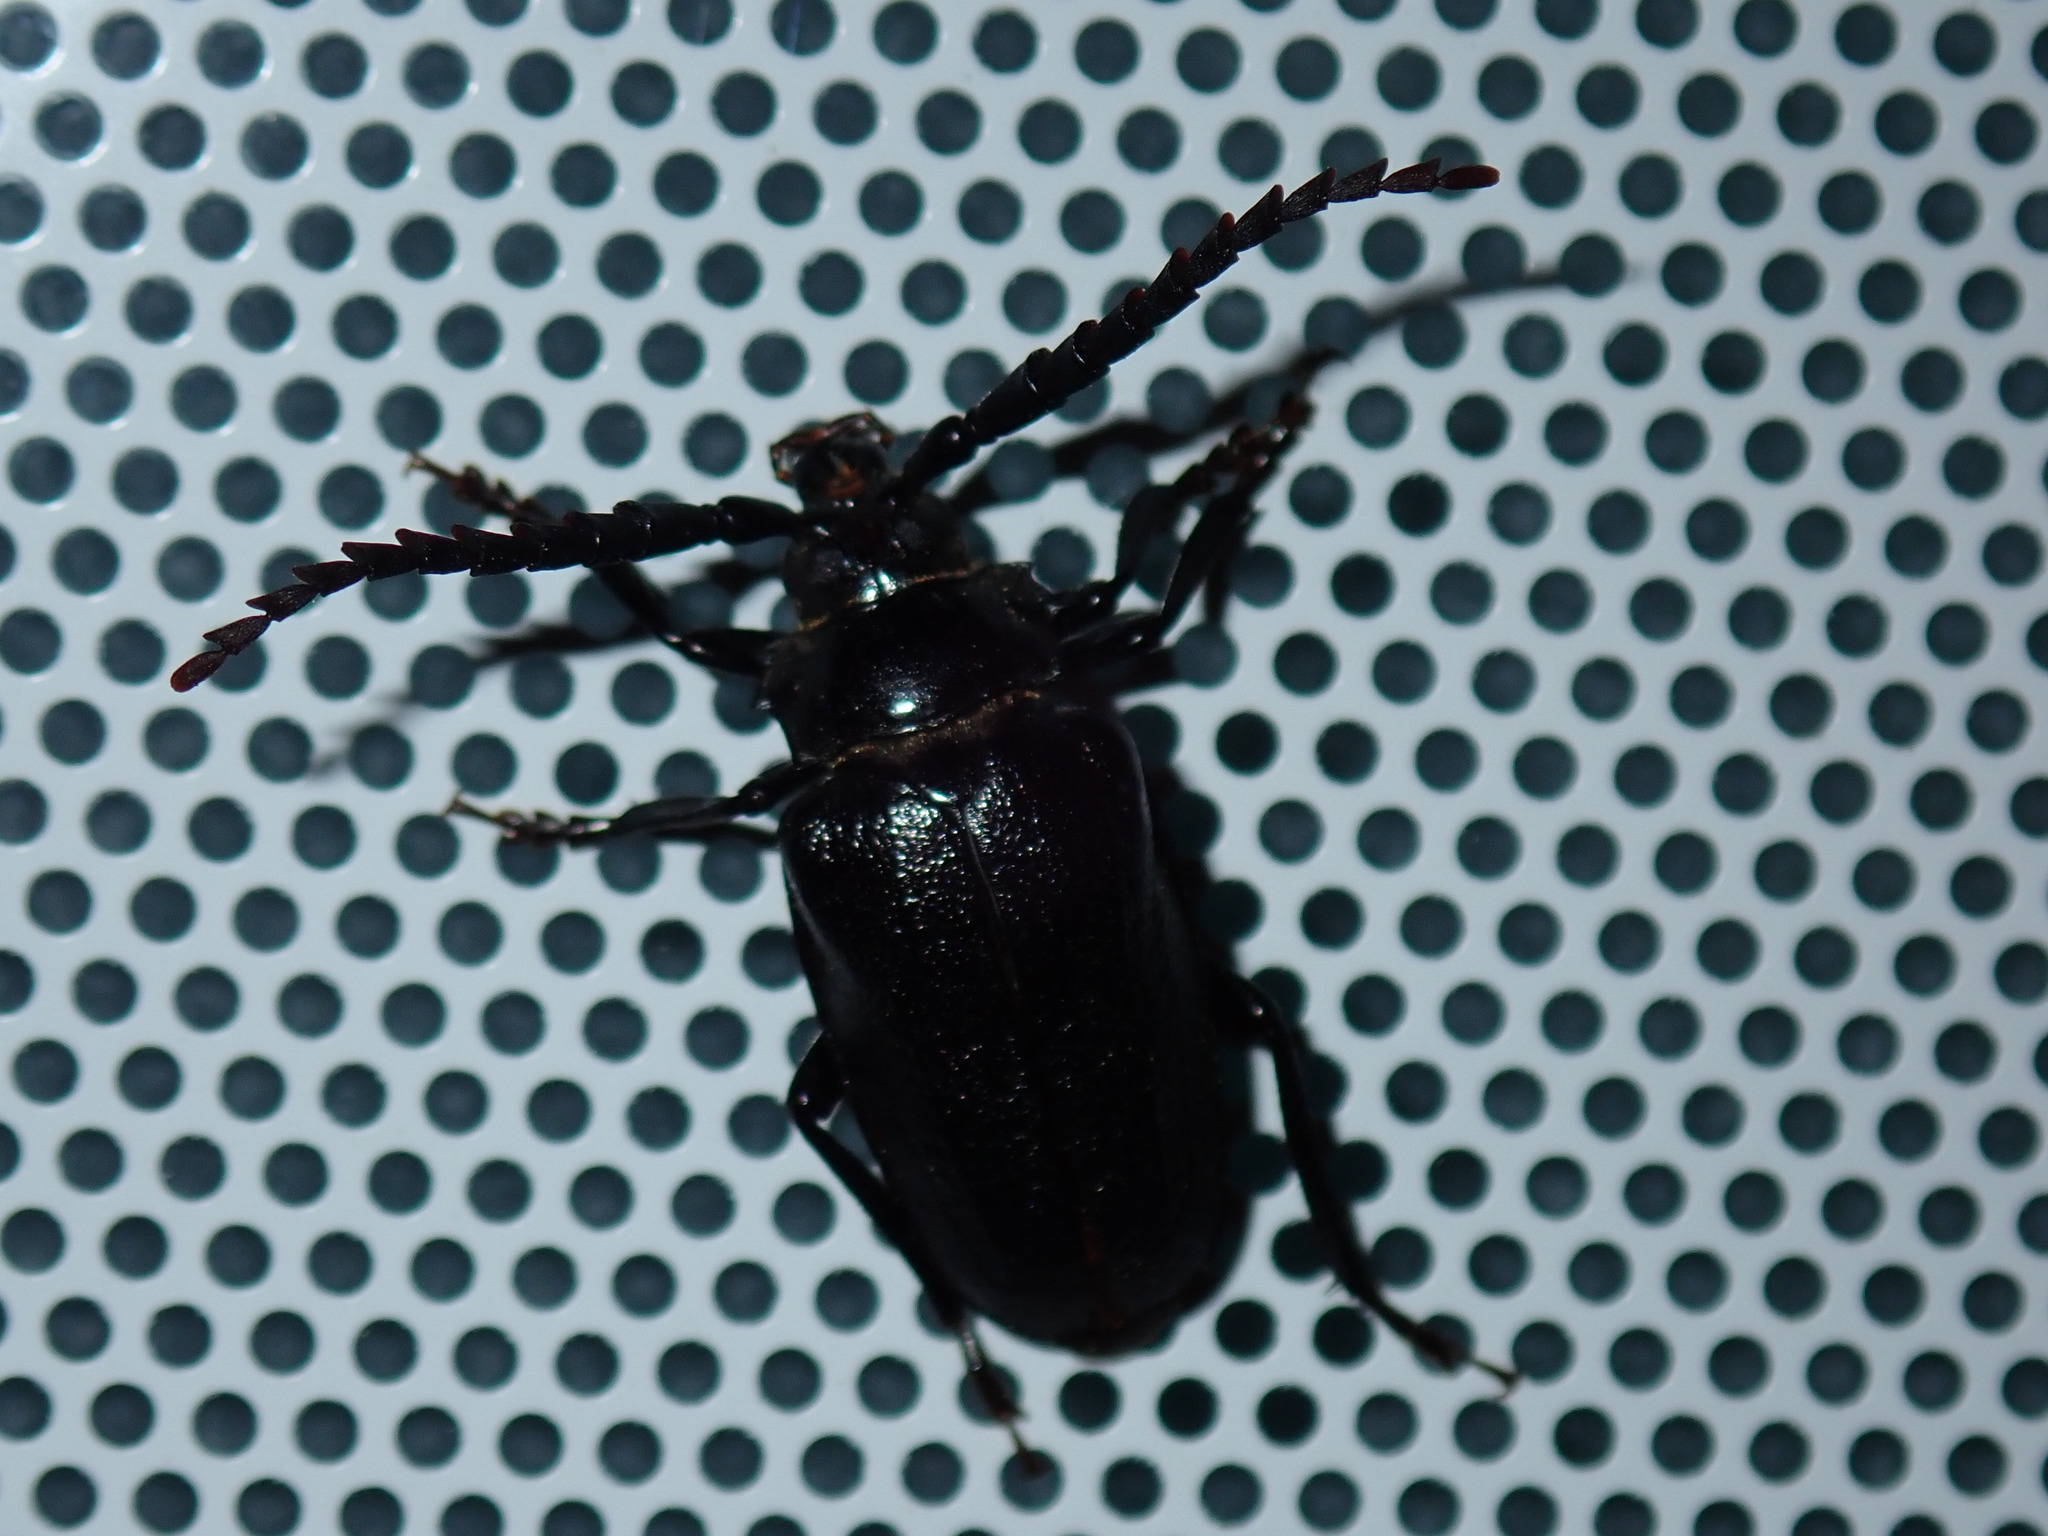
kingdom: Animalia
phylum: Arthropoda
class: Insecta
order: Coleoptera
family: Cerambycidae
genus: Prionus
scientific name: Prionus laticollis
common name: Broad necked prionus
